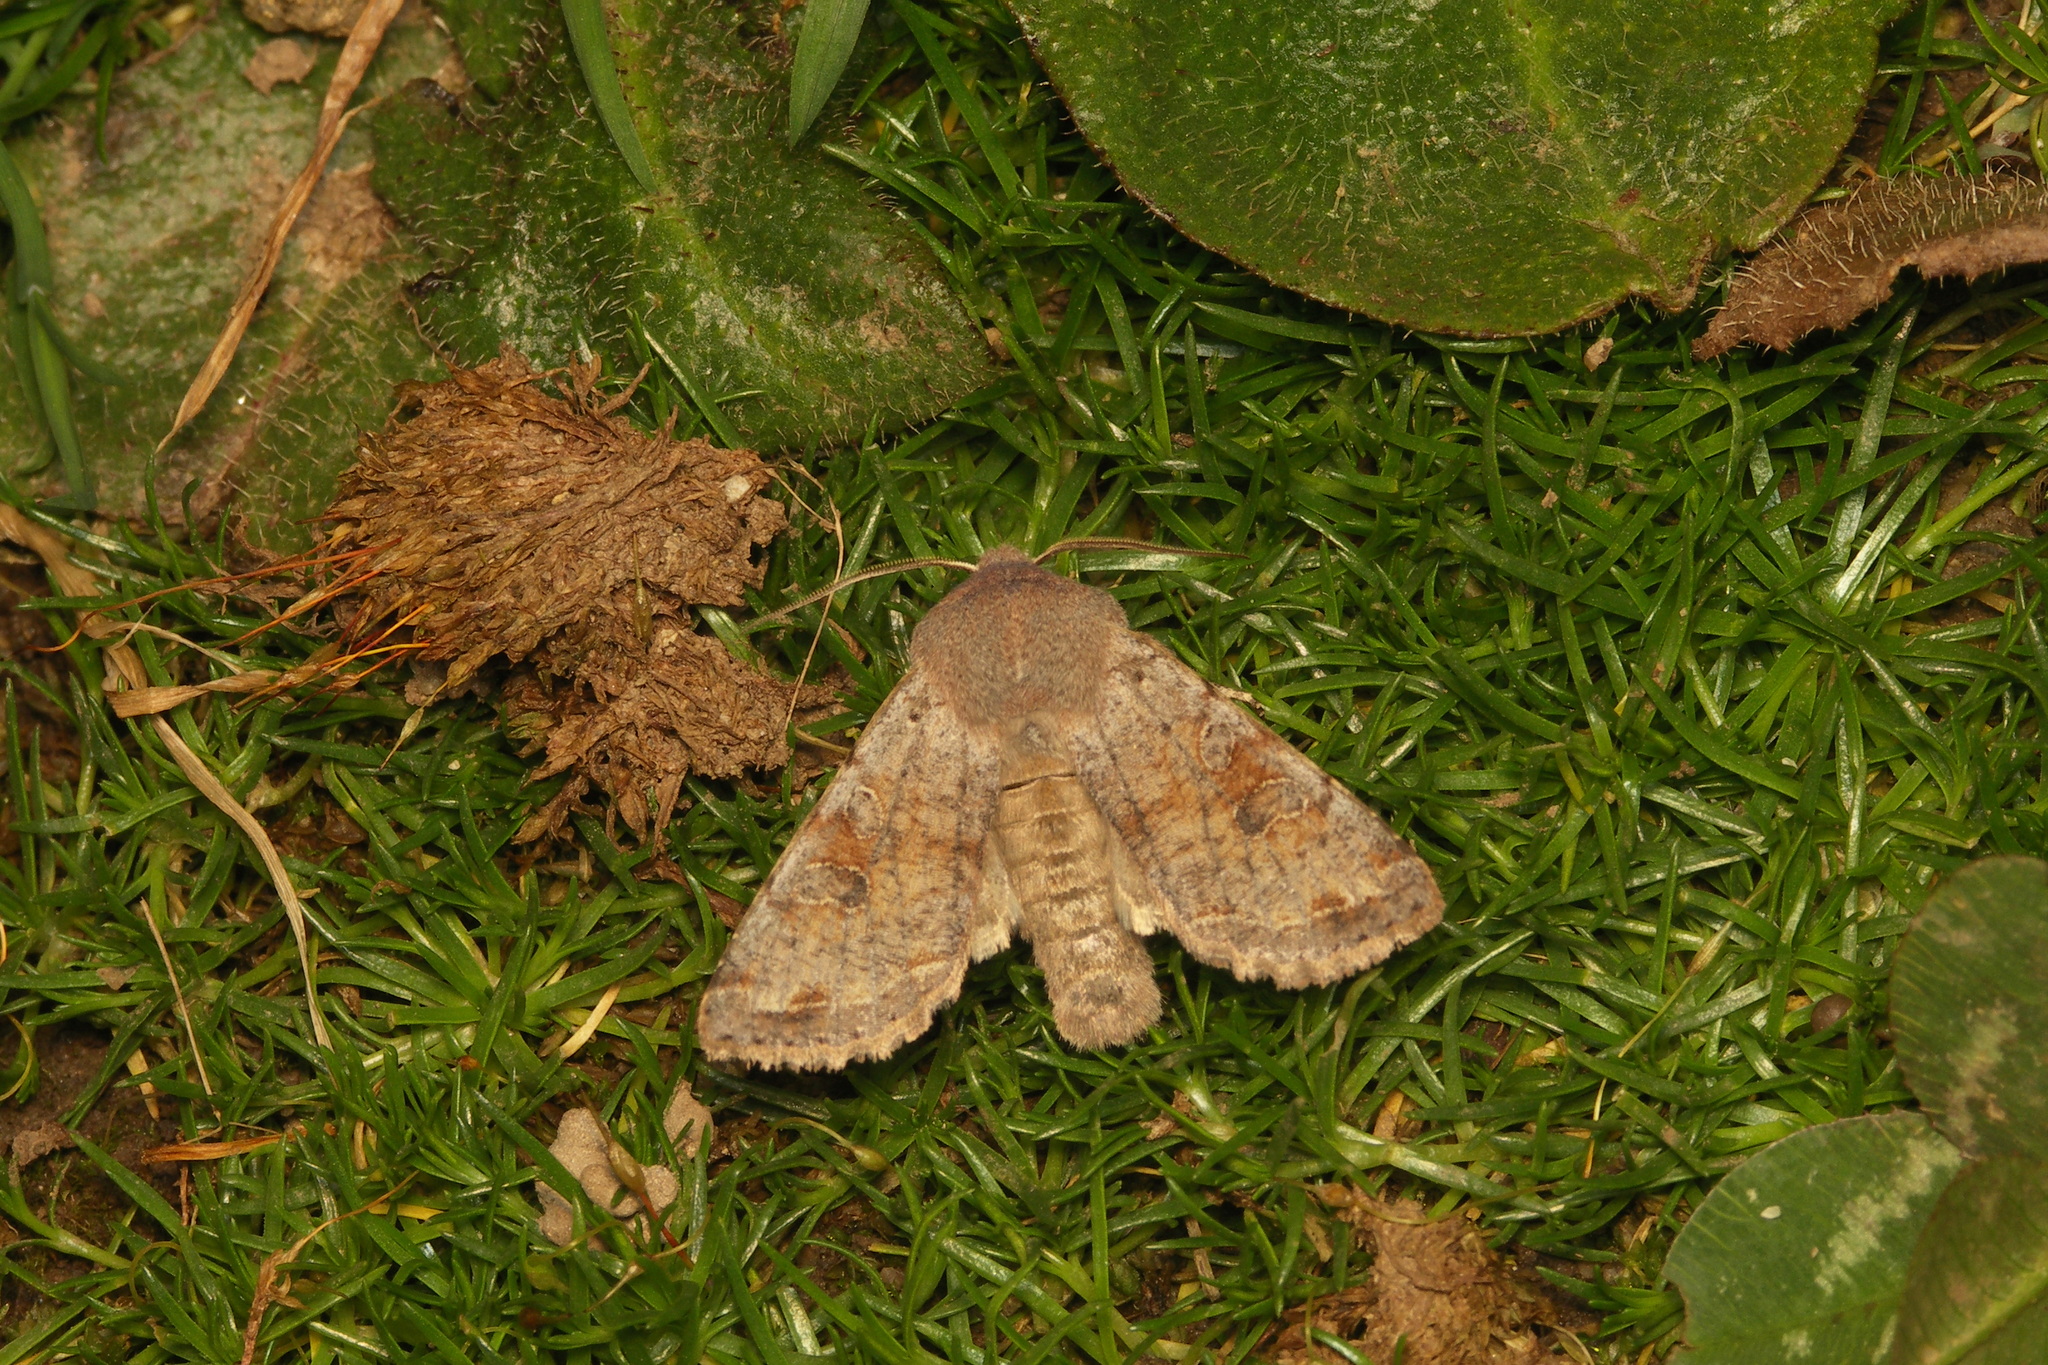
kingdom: Animalia
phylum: Arthropoda
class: Insecta
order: Lepidoptera
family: Noctuidae
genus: Orthosia
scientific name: Orthosia incerta
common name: Clouded drab
